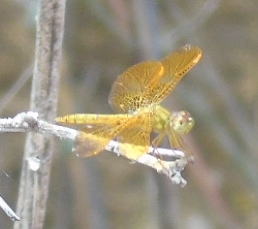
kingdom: Animalia
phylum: Arthropoda
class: Insecta
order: Odonata
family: Libellulidae
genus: Perithemis
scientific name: Perithemis intensa
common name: Mexican amberwing
